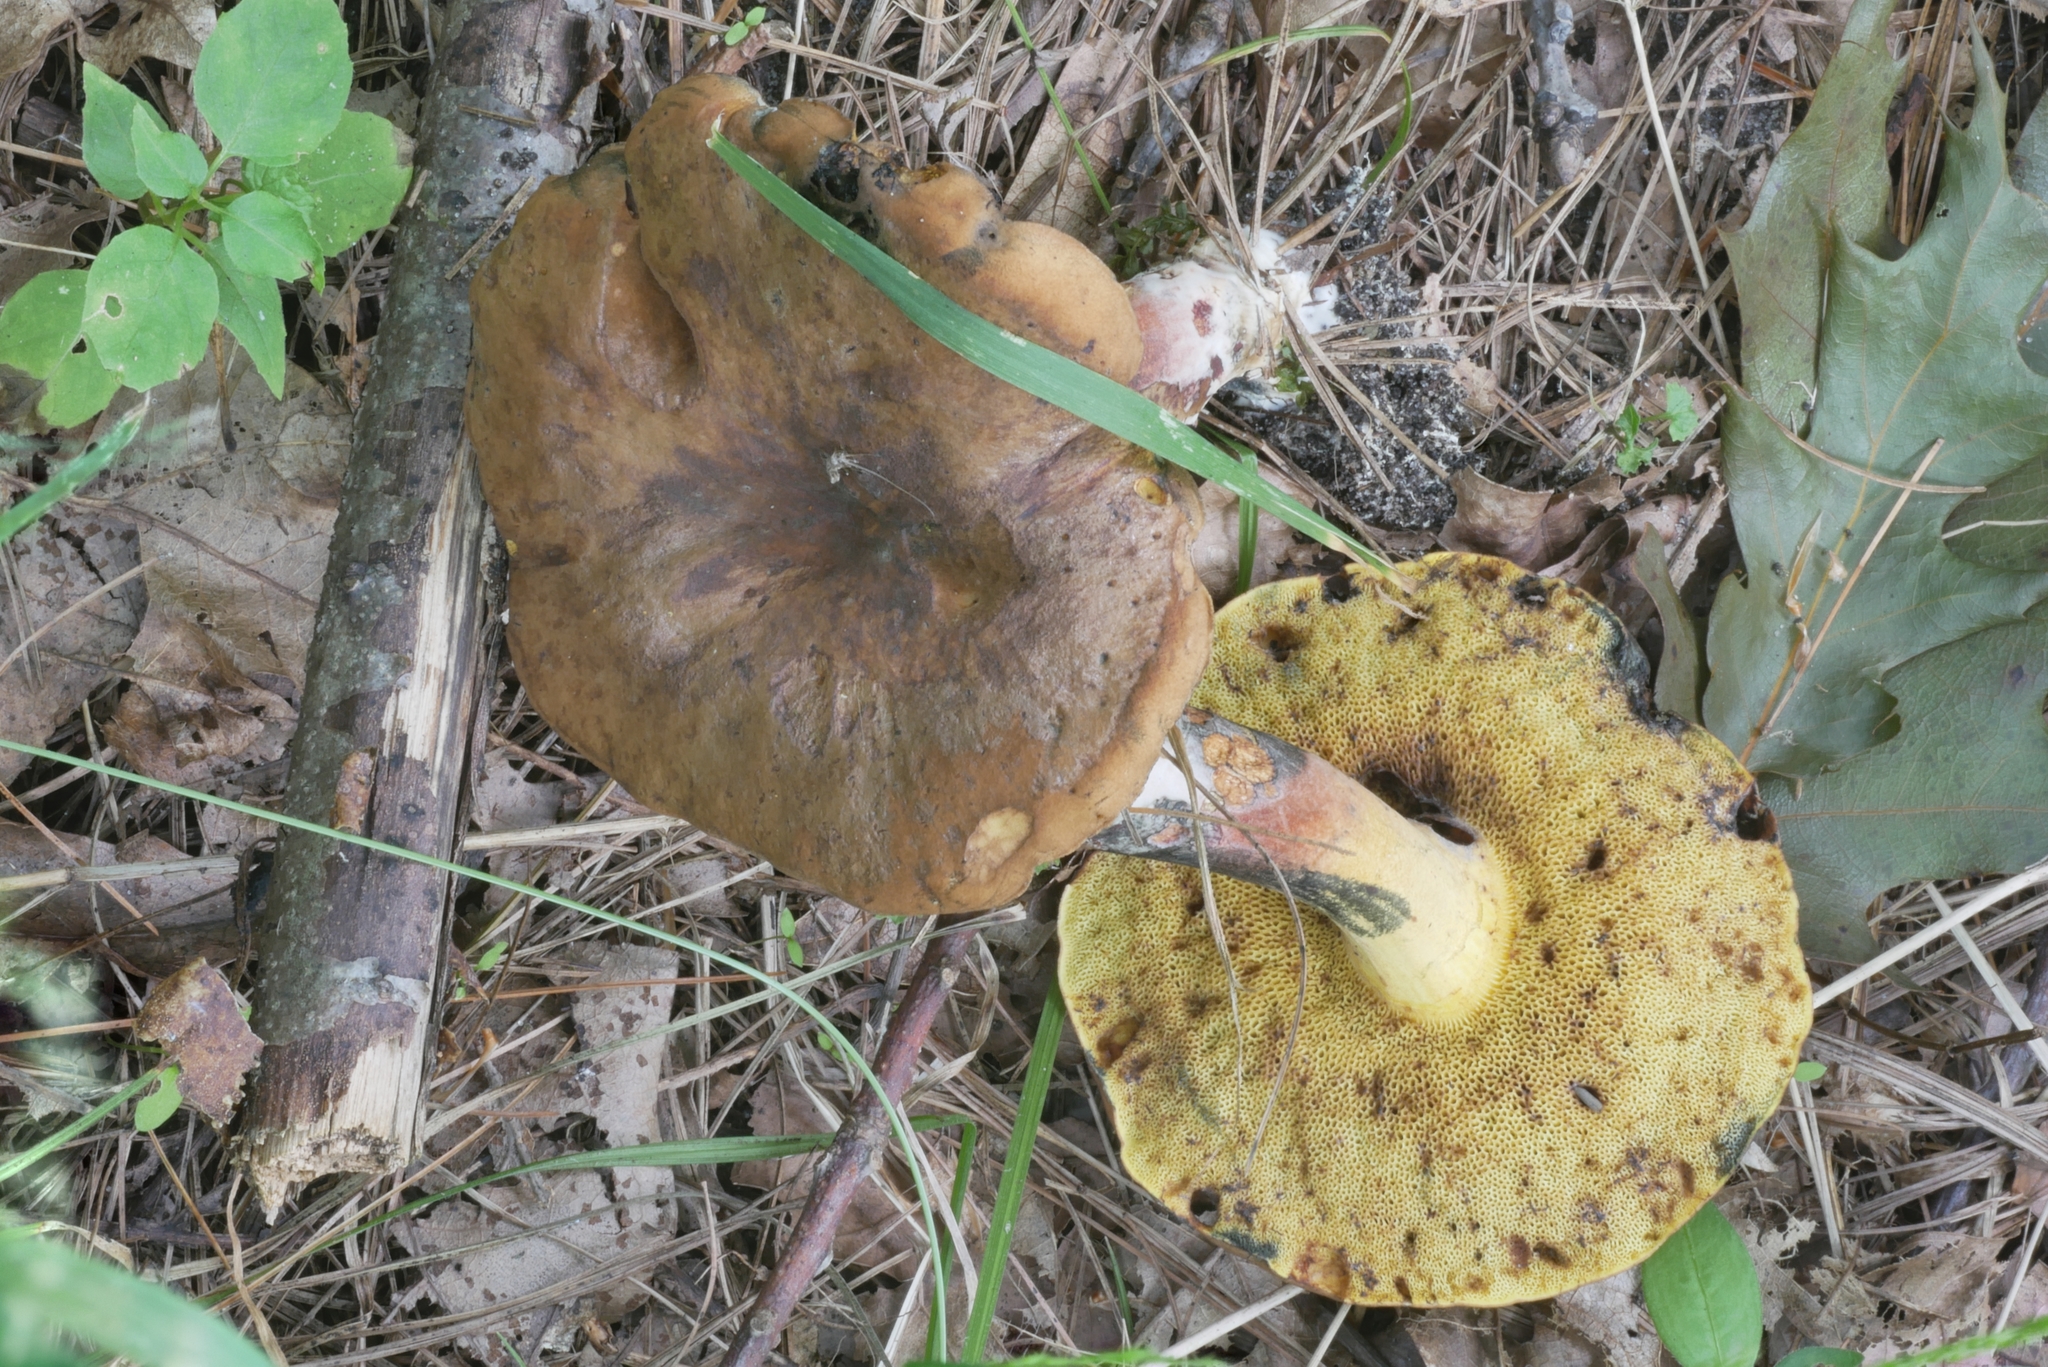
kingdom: Fungi
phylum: Basidiomycota
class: Agaricomycetes
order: Boletales
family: Boletaceae
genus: Cyanoboletus
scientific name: Cyanoboletus cyaneitinctus
